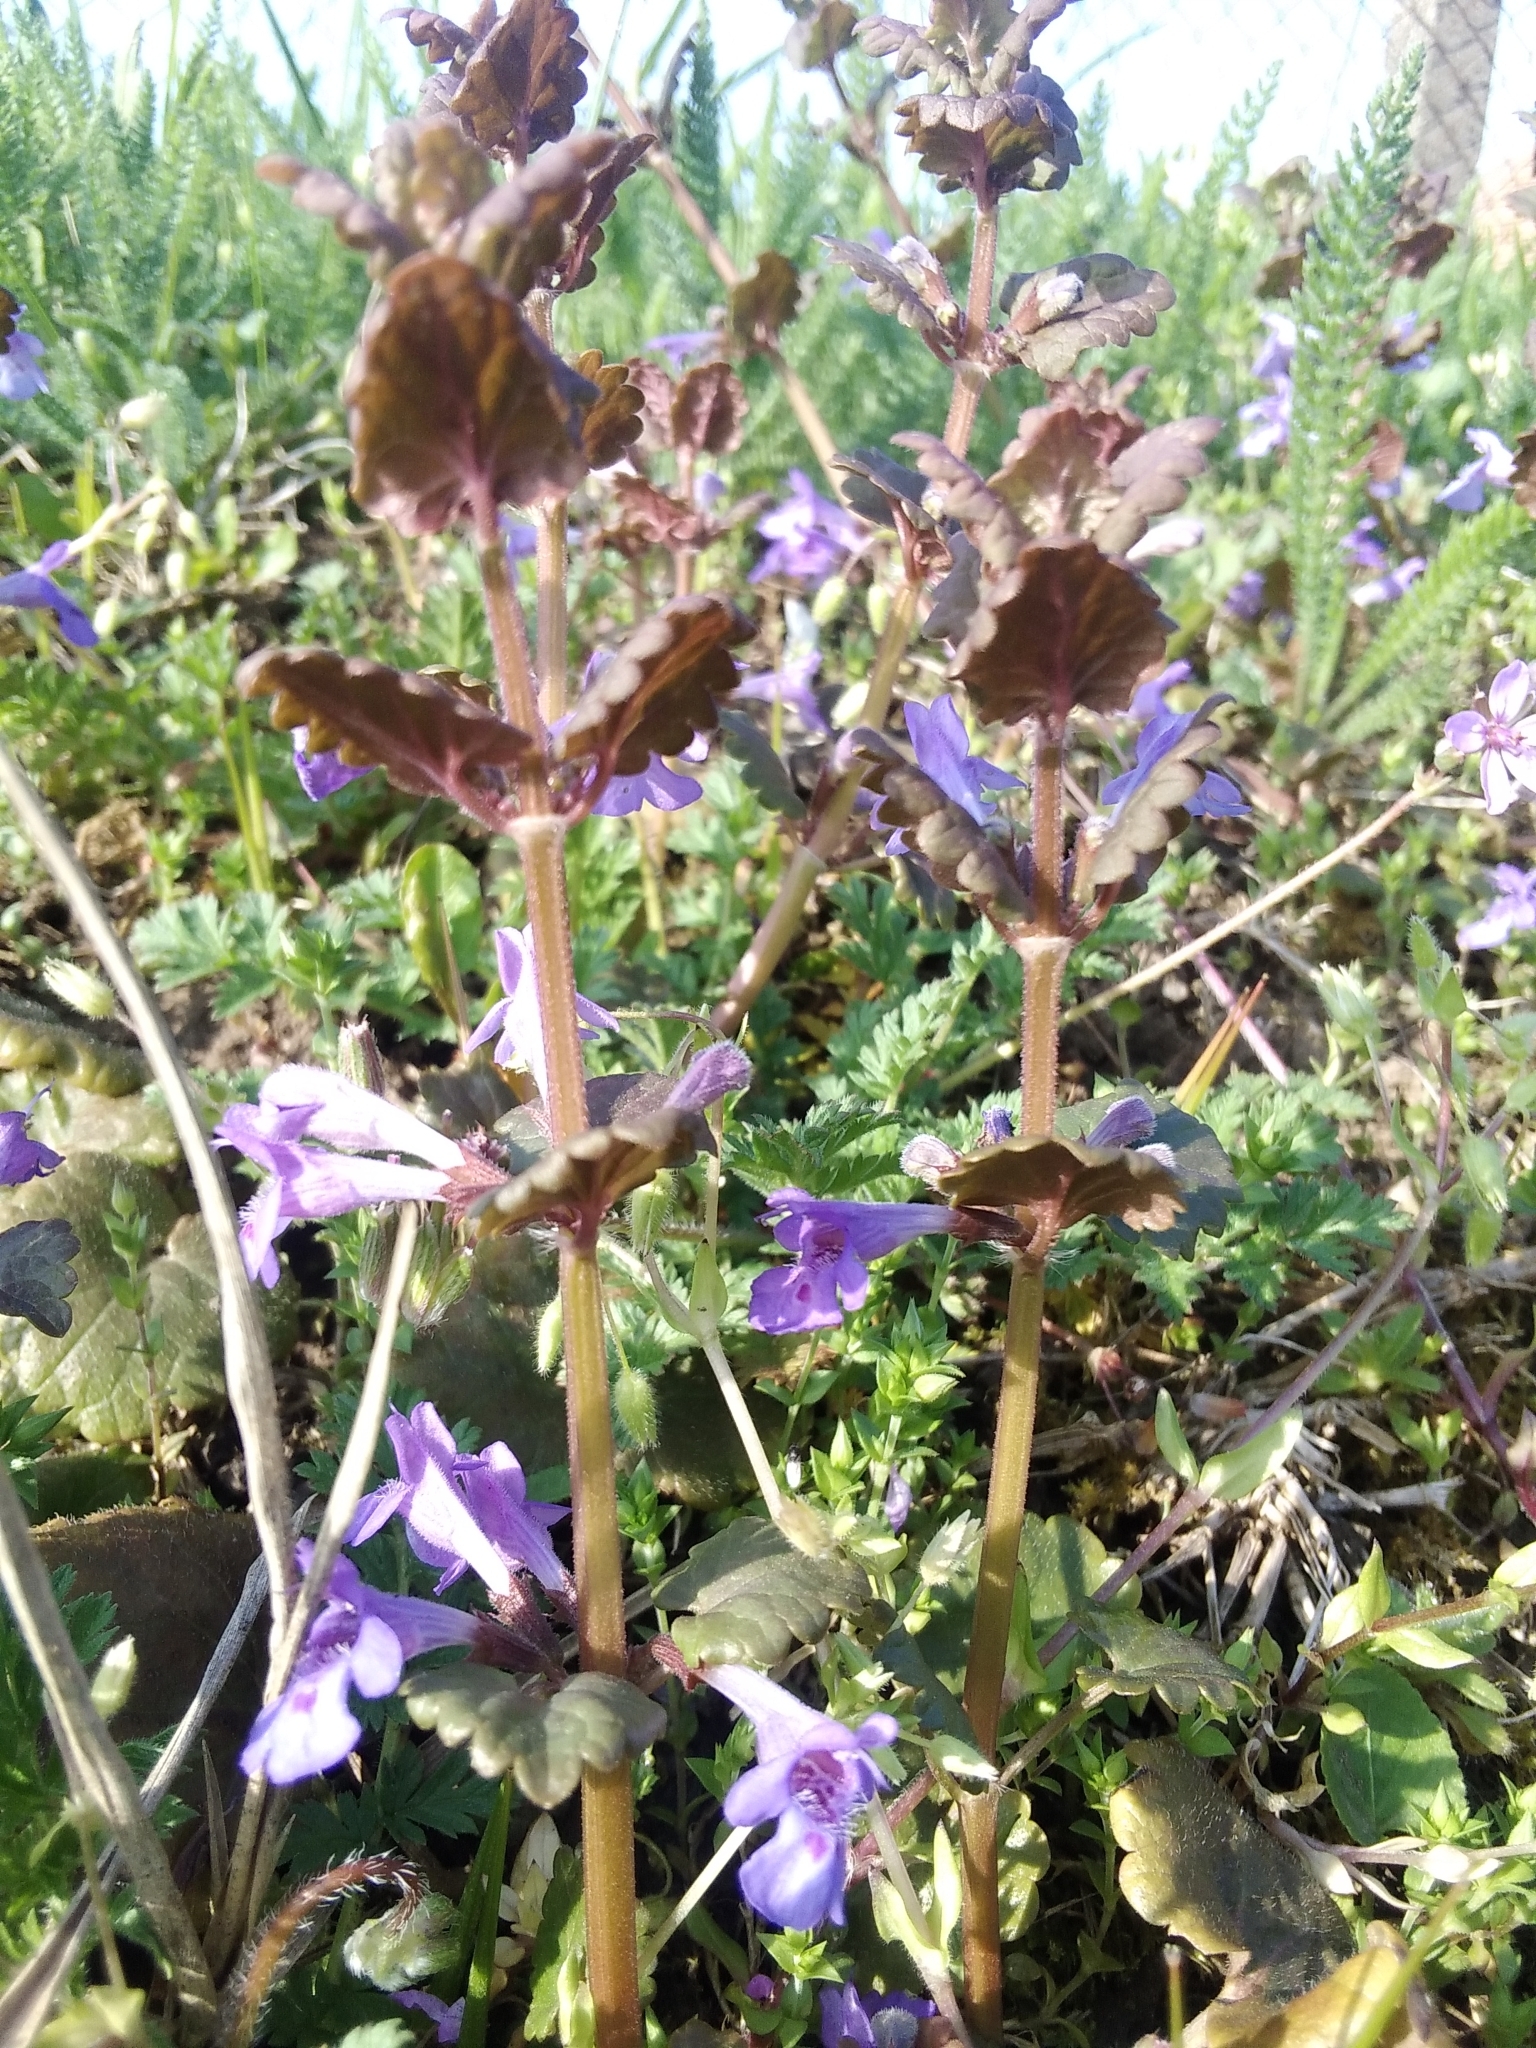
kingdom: Plantae
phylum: Tracheophyta
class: Magnoliopsida
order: Lamiales
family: Lamiaceae
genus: Glechoma
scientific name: Glechoma hederacea
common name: Ground ivy
